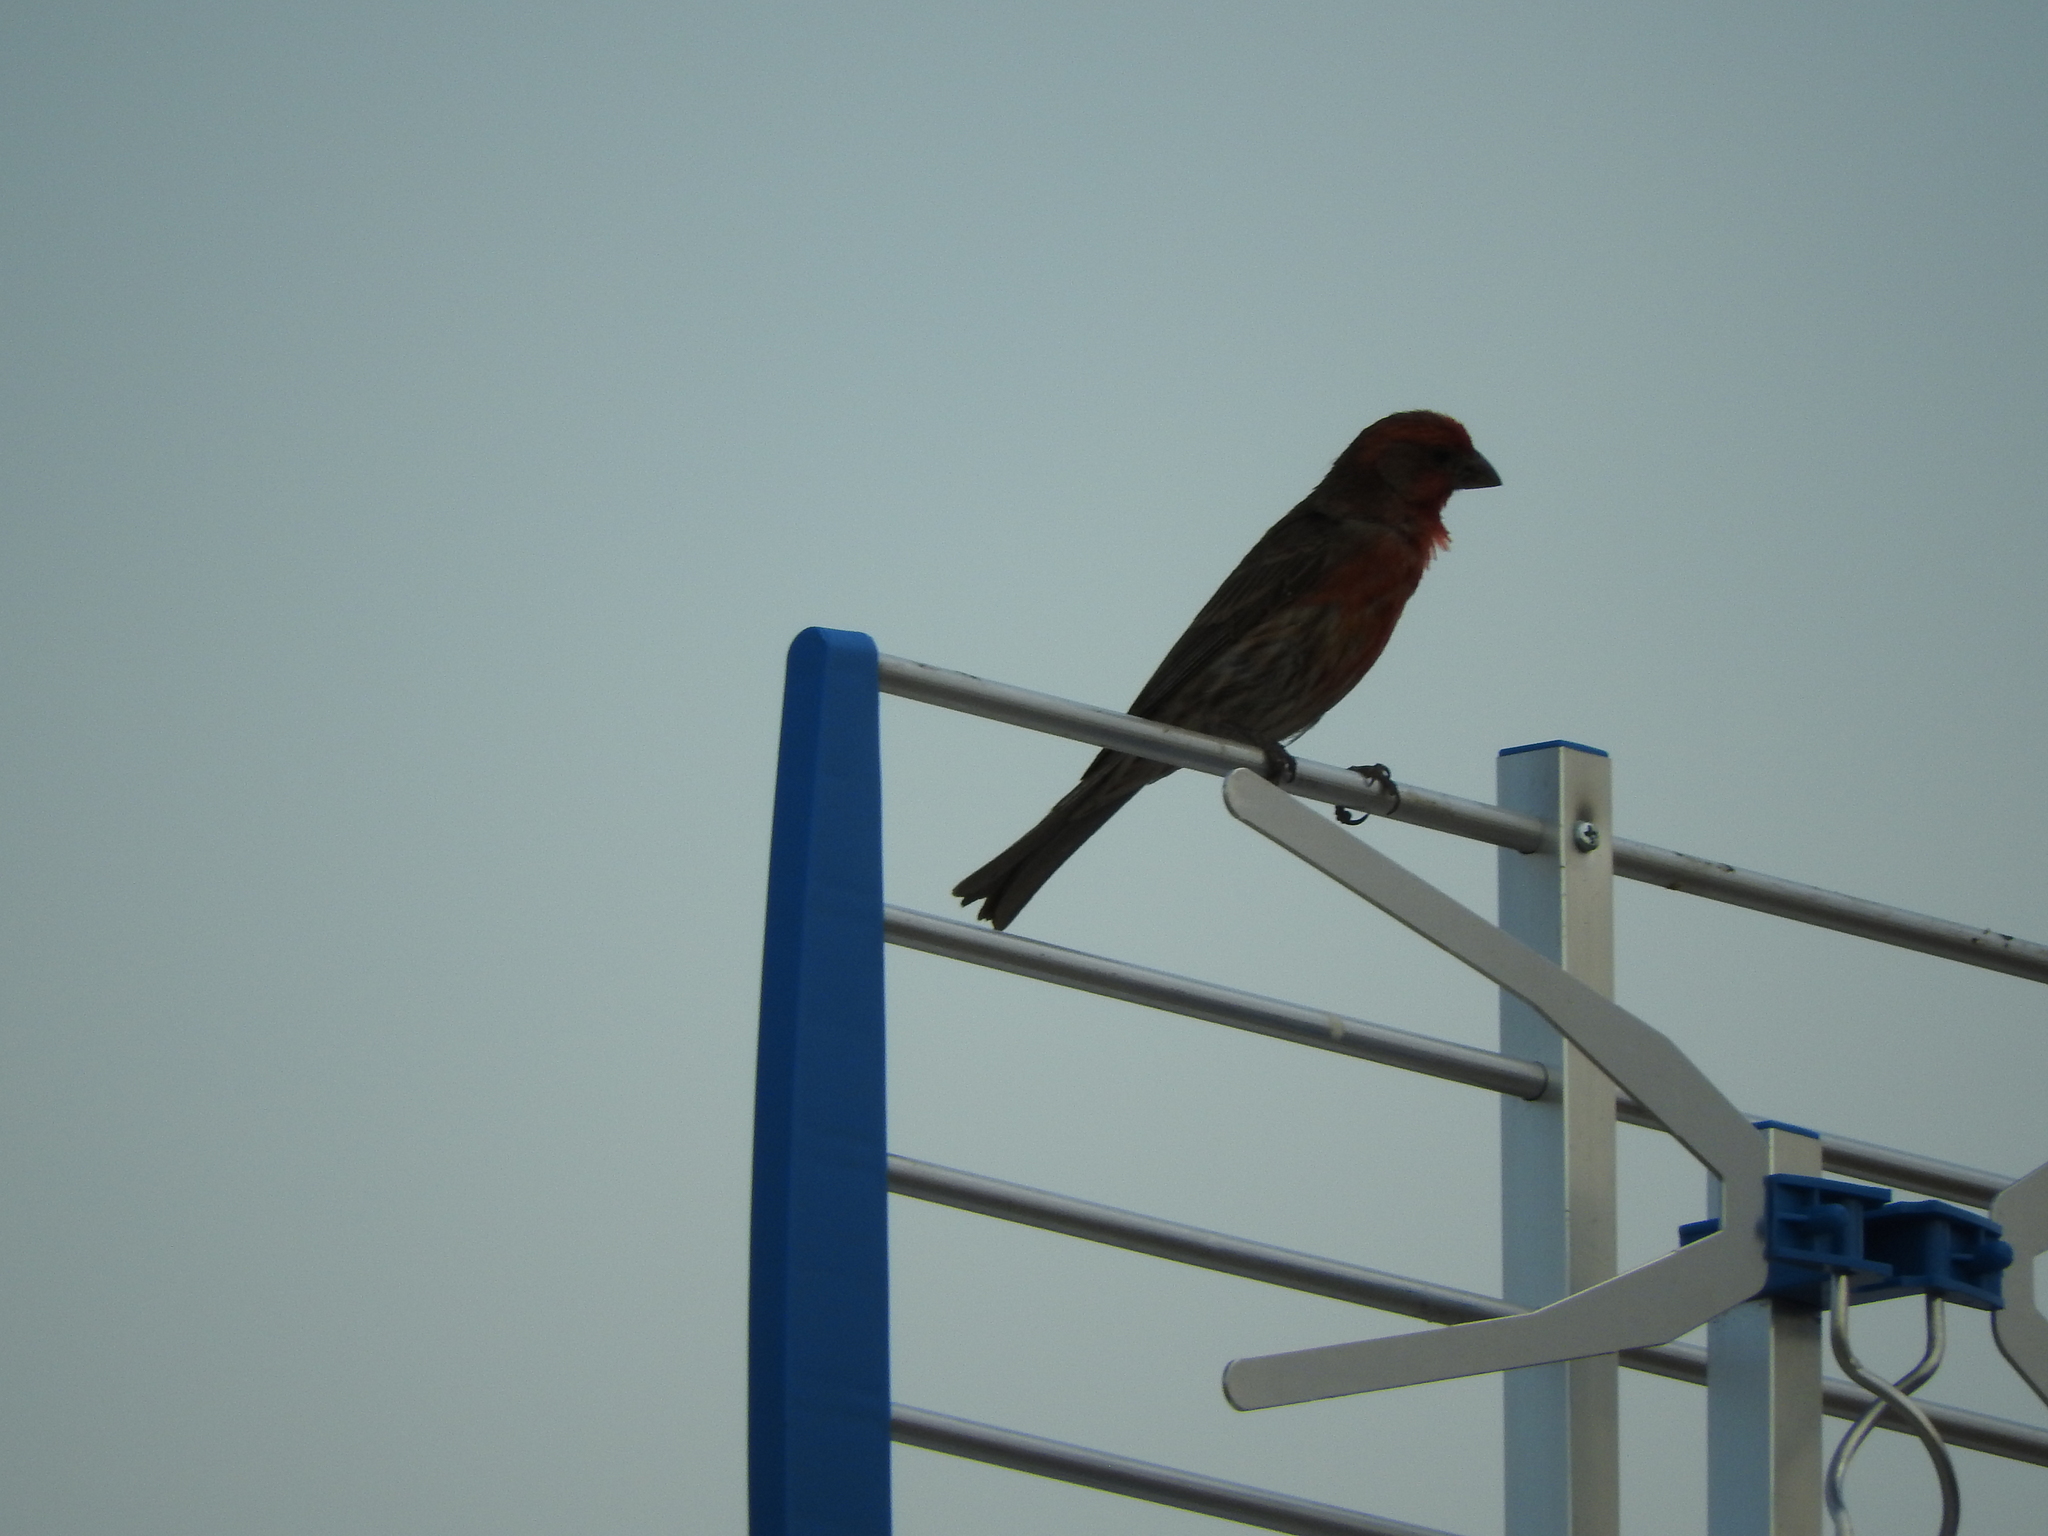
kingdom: Animalia
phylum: Chordata
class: Aves
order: Passeriformes
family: Fringillidae
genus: Haemorhous
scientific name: Haemorhous mexicanus
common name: House finch
